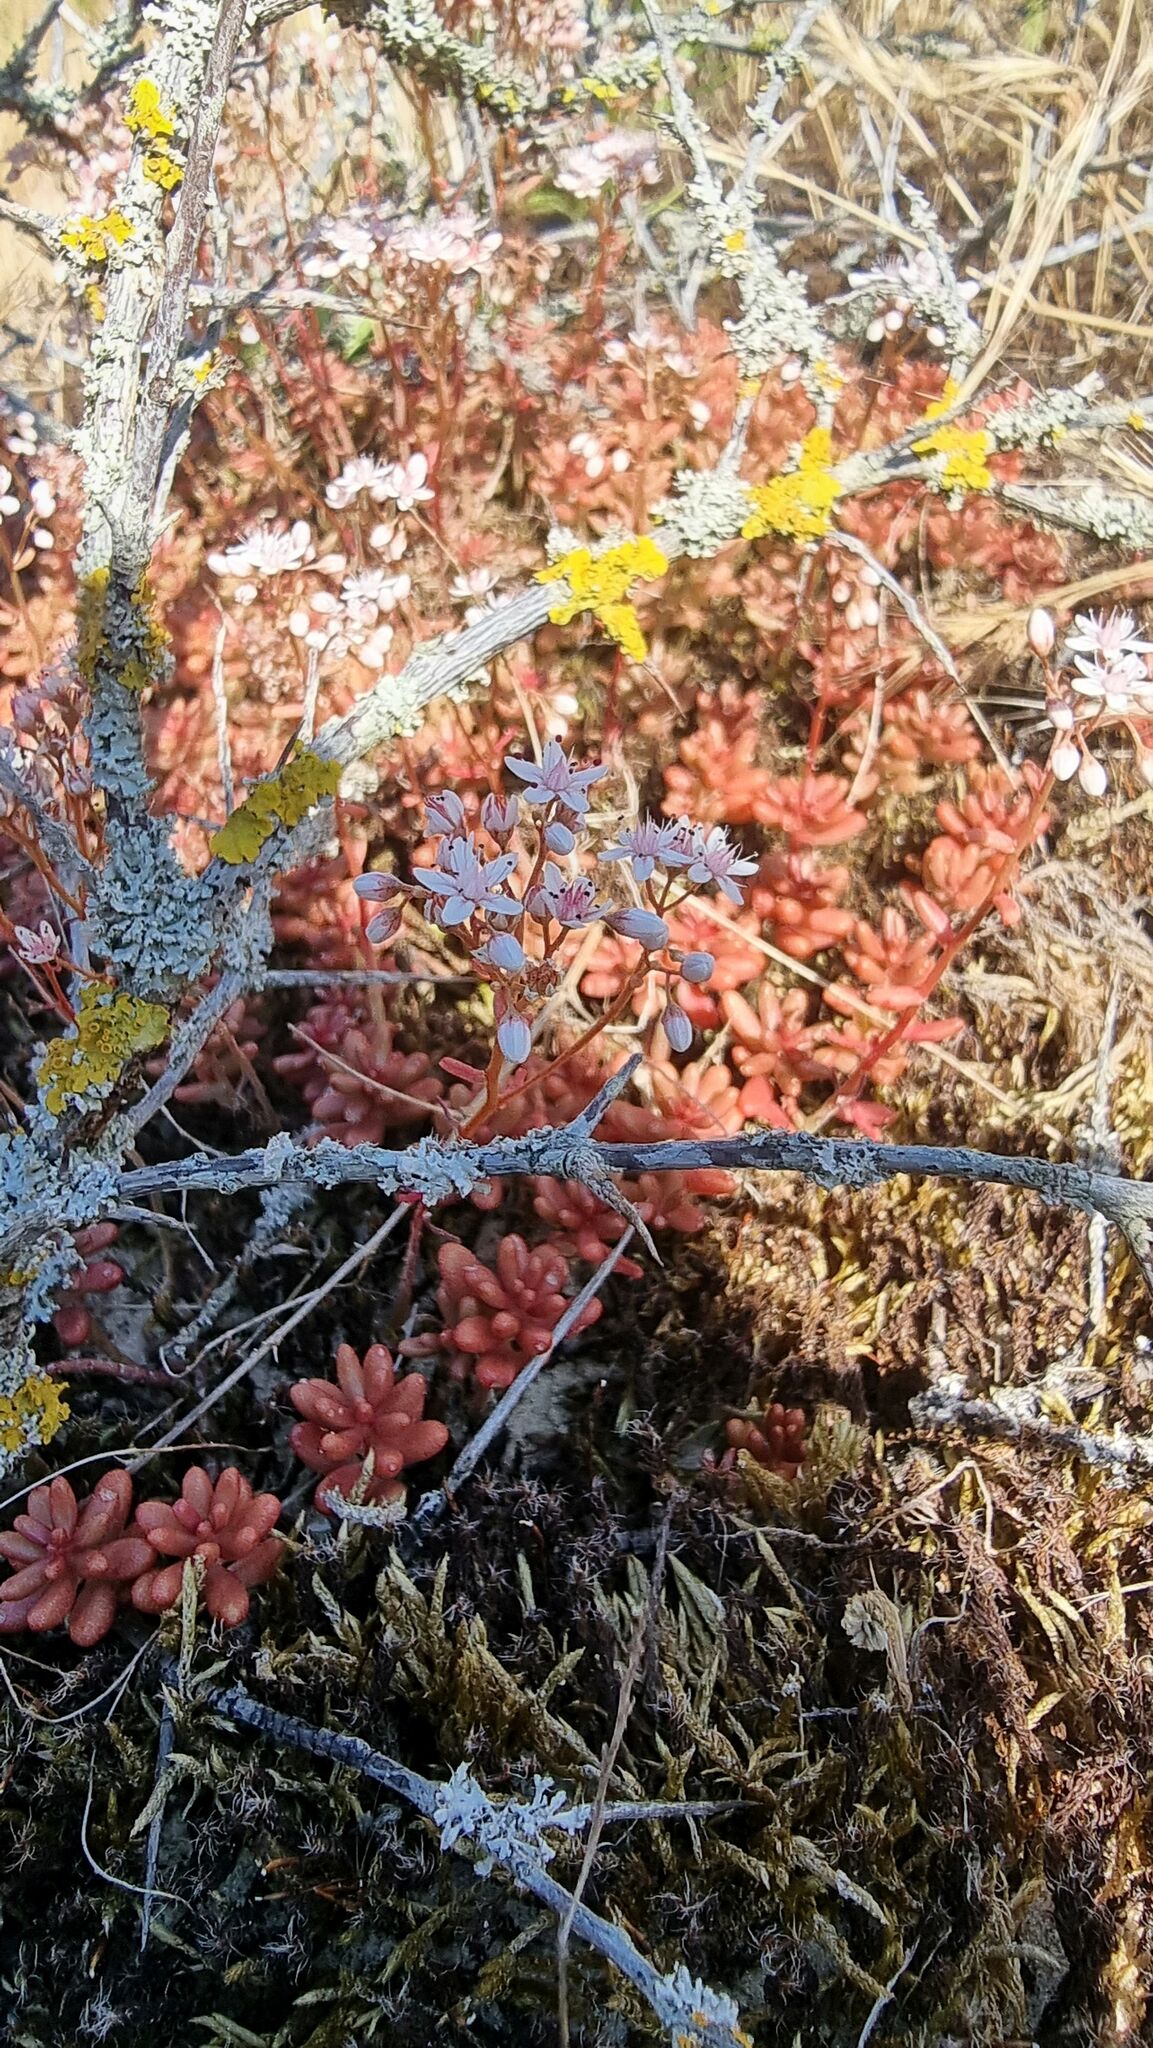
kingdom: Plantae
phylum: Tracheophyta
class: Magnoliopsida
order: Saxifragales
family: Crassulaceae
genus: Sedum
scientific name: Sedum album
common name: White stonecrop
